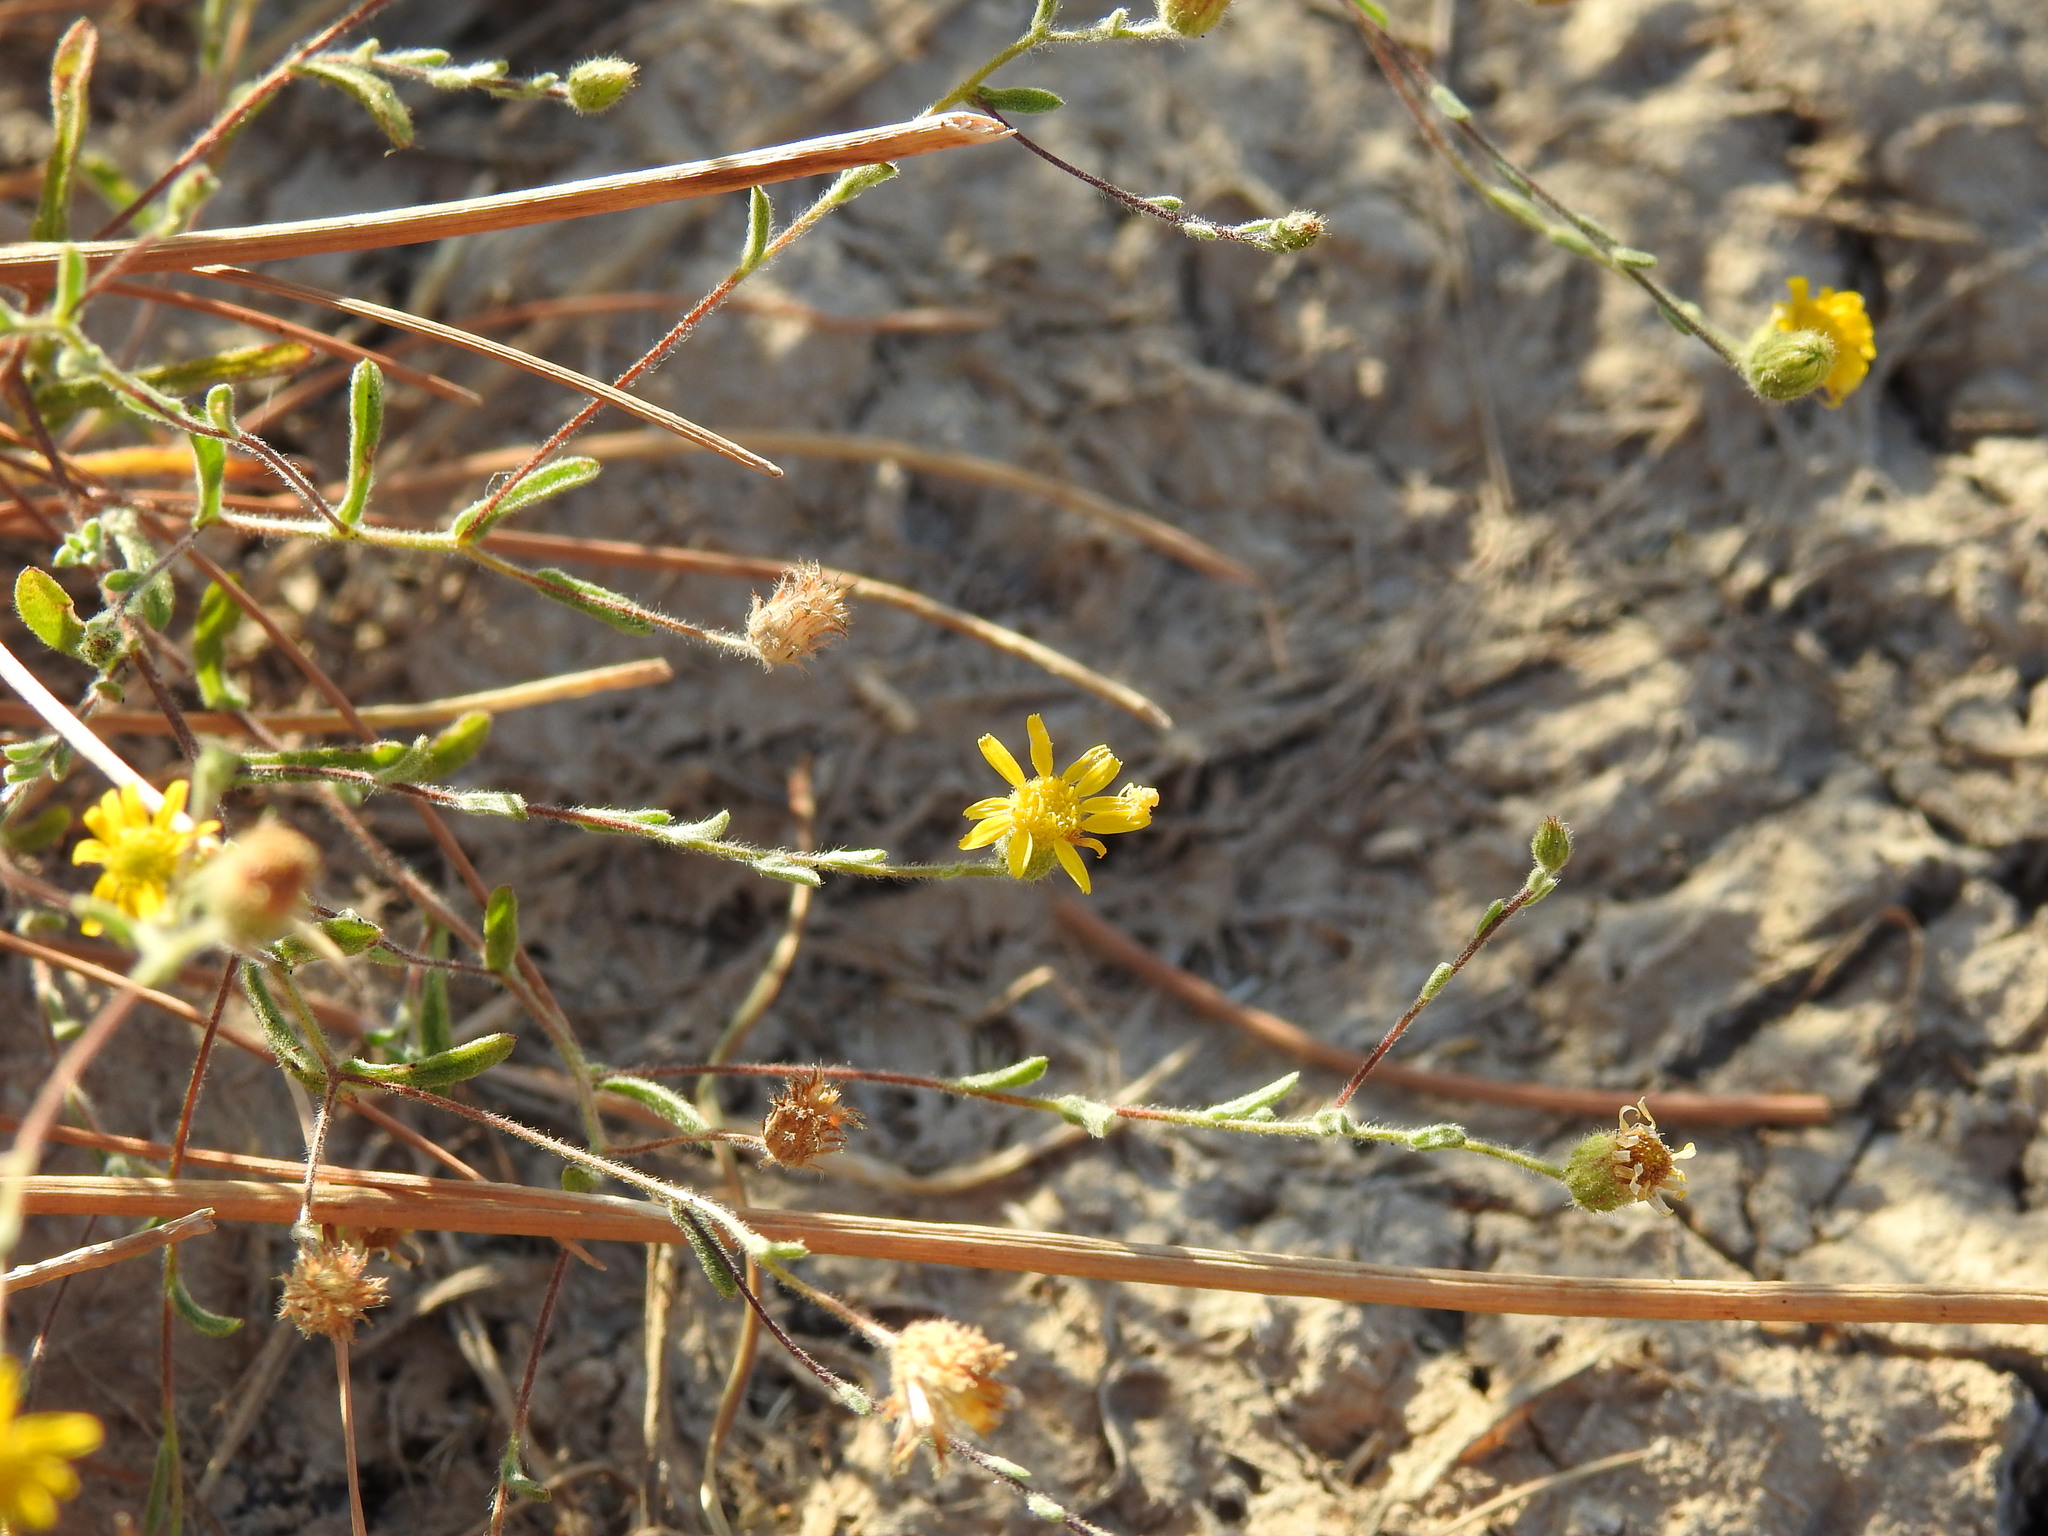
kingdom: Plantae
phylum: Tracheophyta
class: Magnoliopsida
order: Asterales
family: Asteraceae
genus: Pulicaria
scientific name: Pulicaria paludosa
